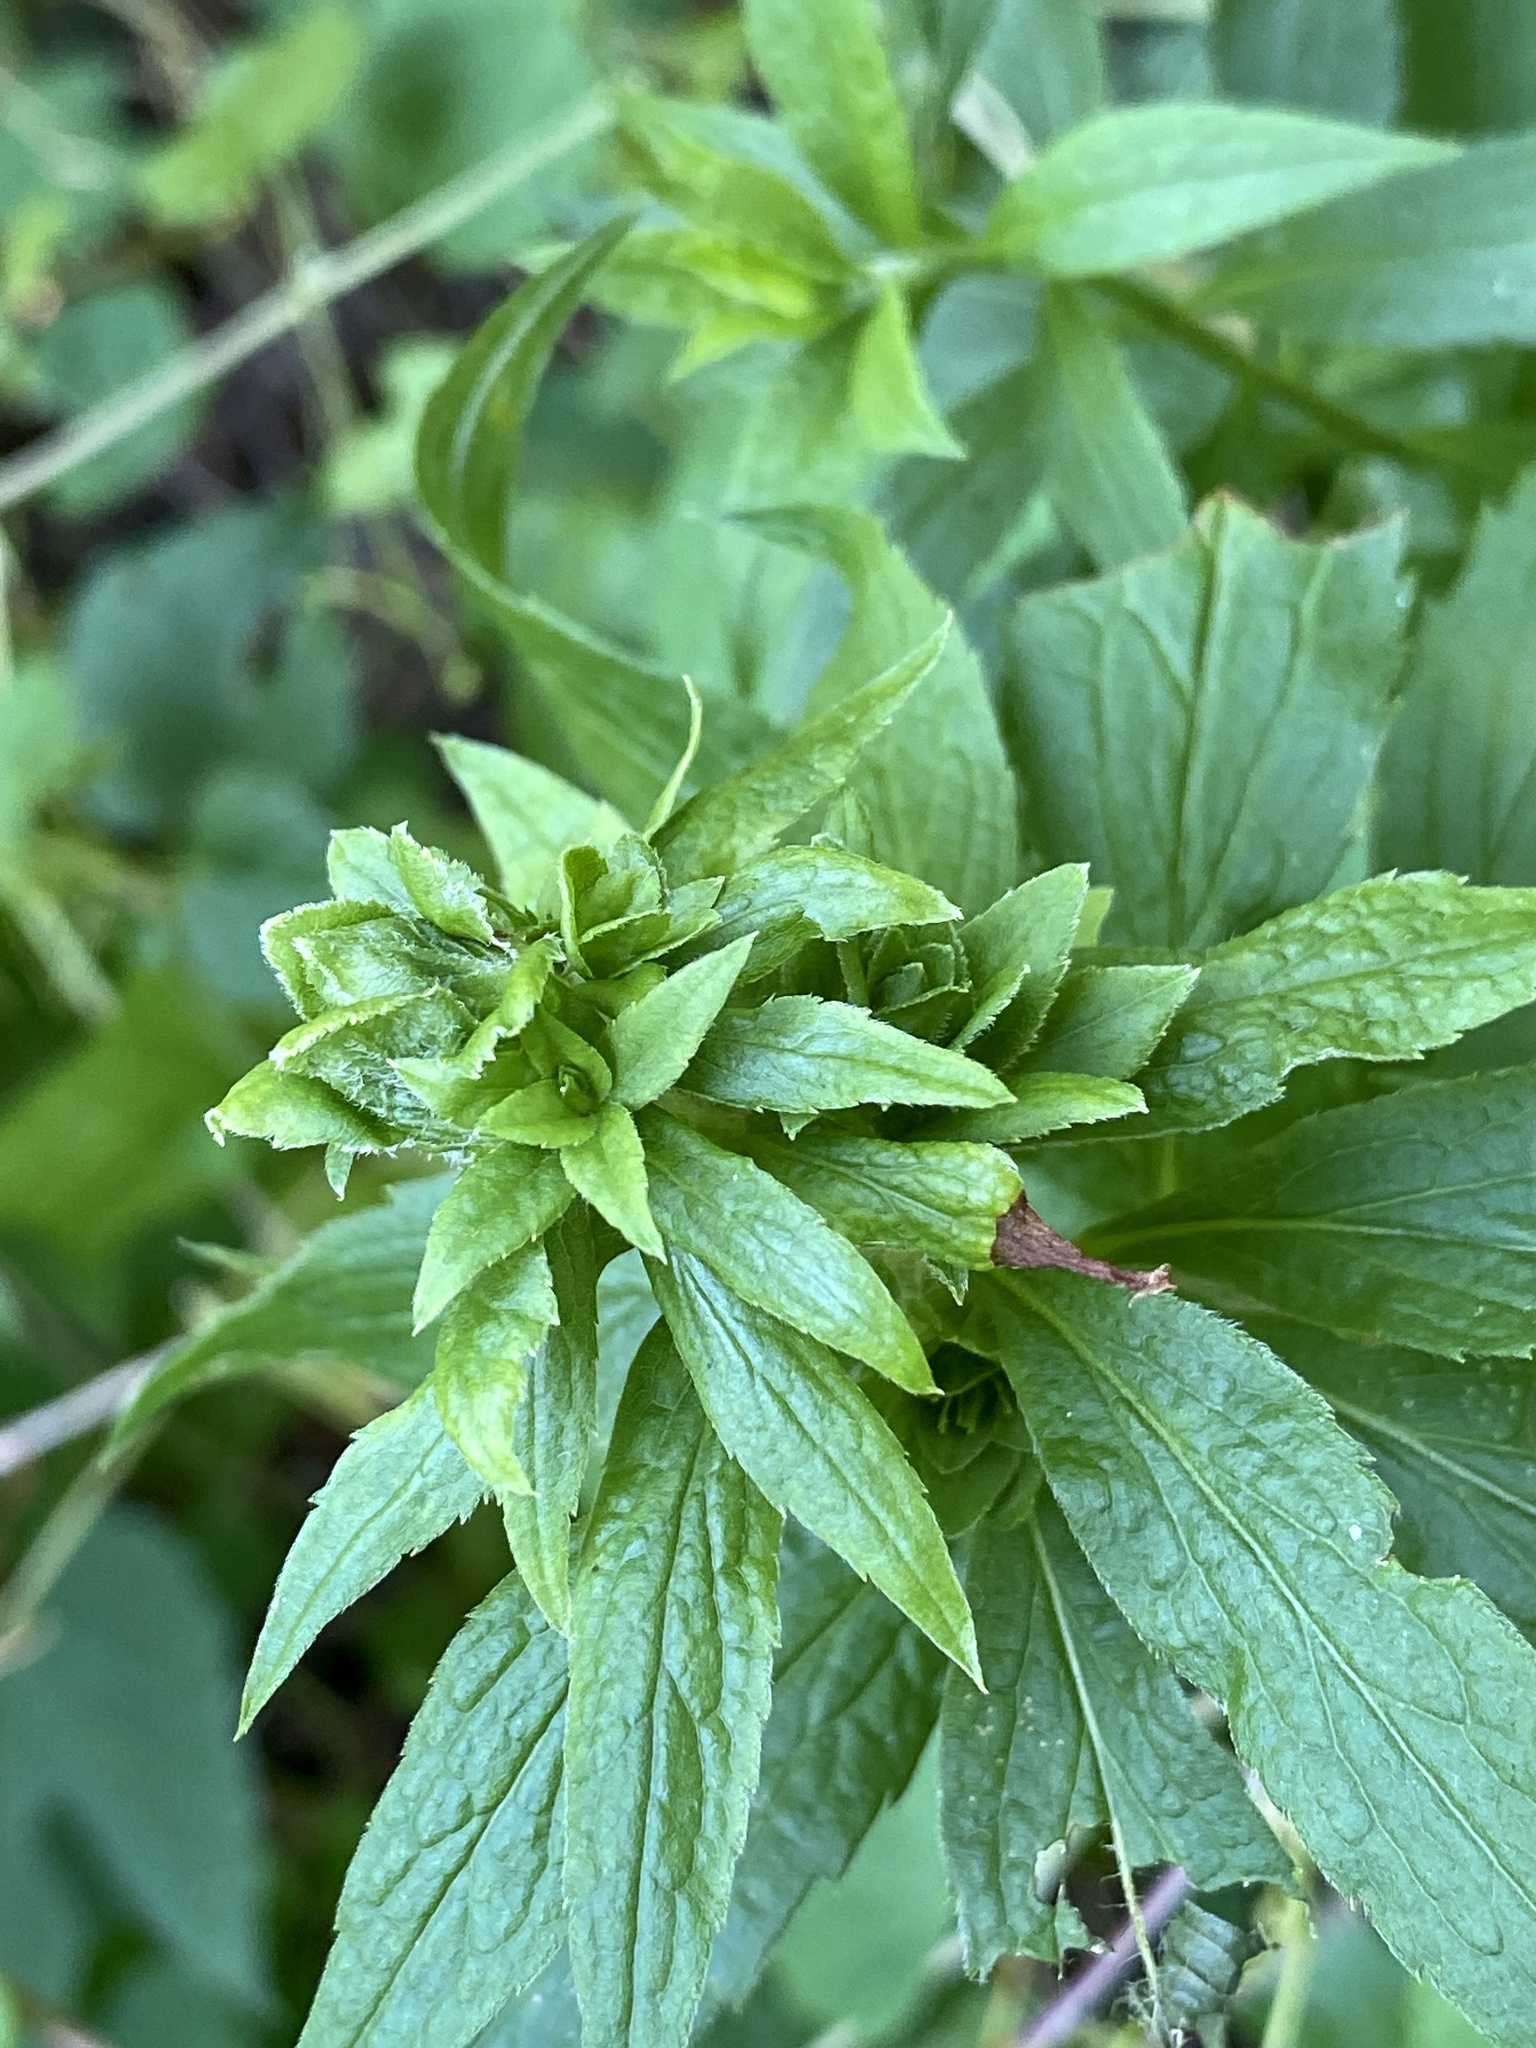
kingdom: Animalia
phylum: Arthropoda
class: Insecta
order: Diptera
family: Tephritidae
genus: Procecidochares
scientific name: Procecidochares atra
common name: Goldenrod brussels sprout gall fly
